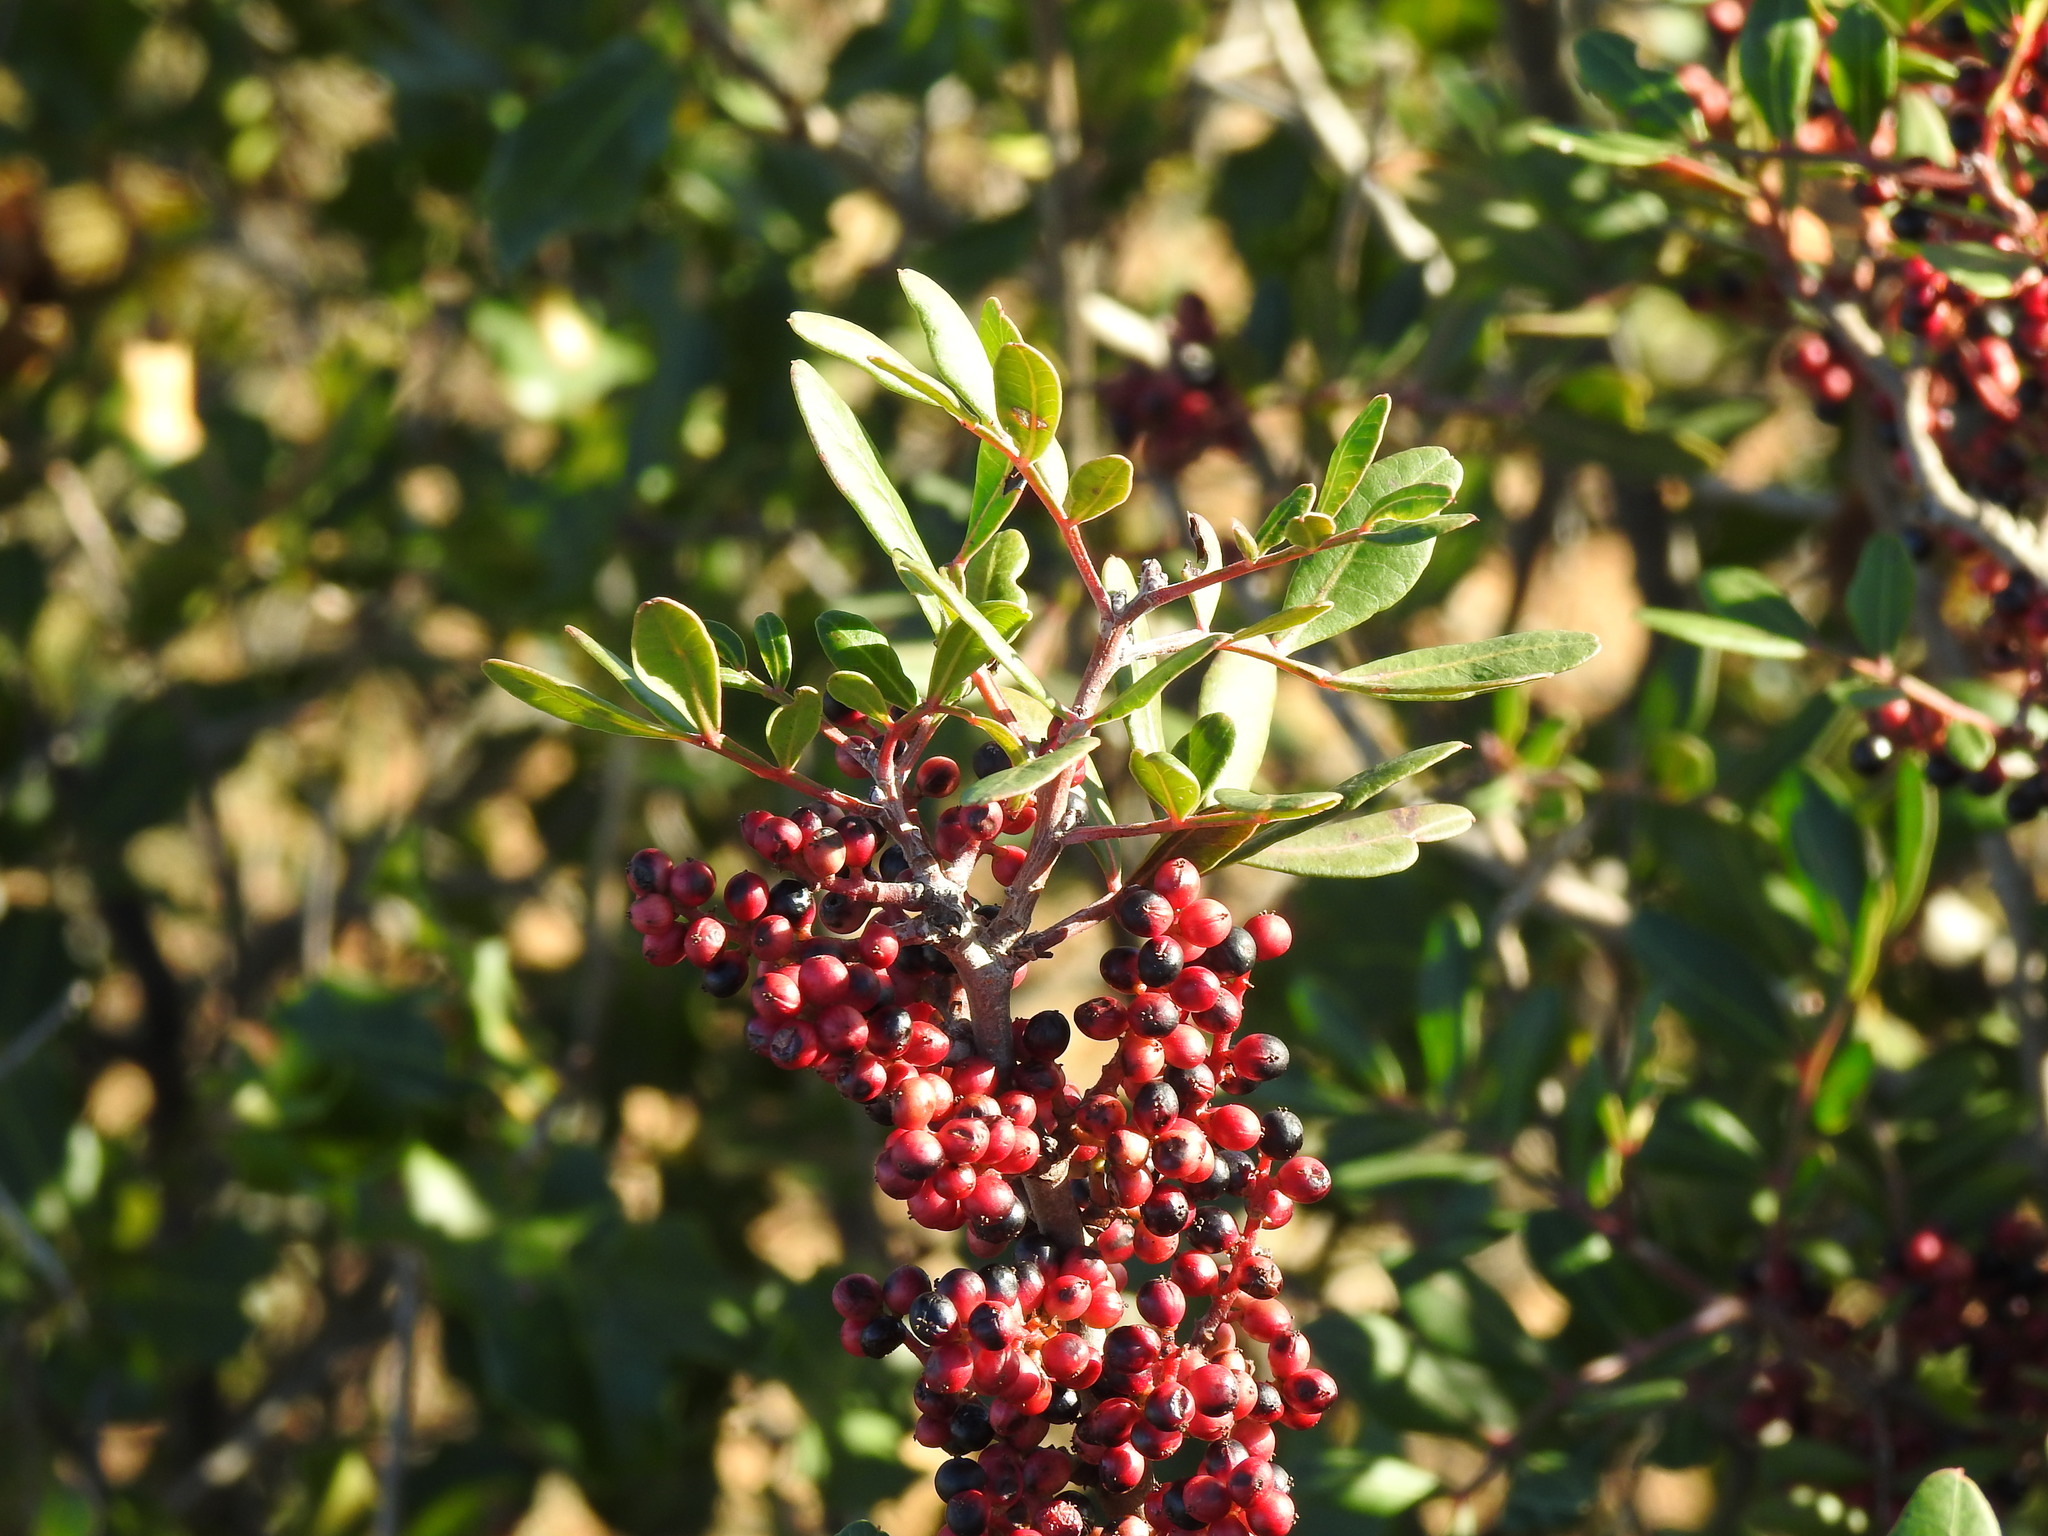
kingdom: Plantae
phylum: Tracheophyta
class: Magnoliopsida
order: Sapindales
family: Anacardiaceae
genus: Pistacia
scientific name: Pistacia lentiscus
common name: Lentisk
